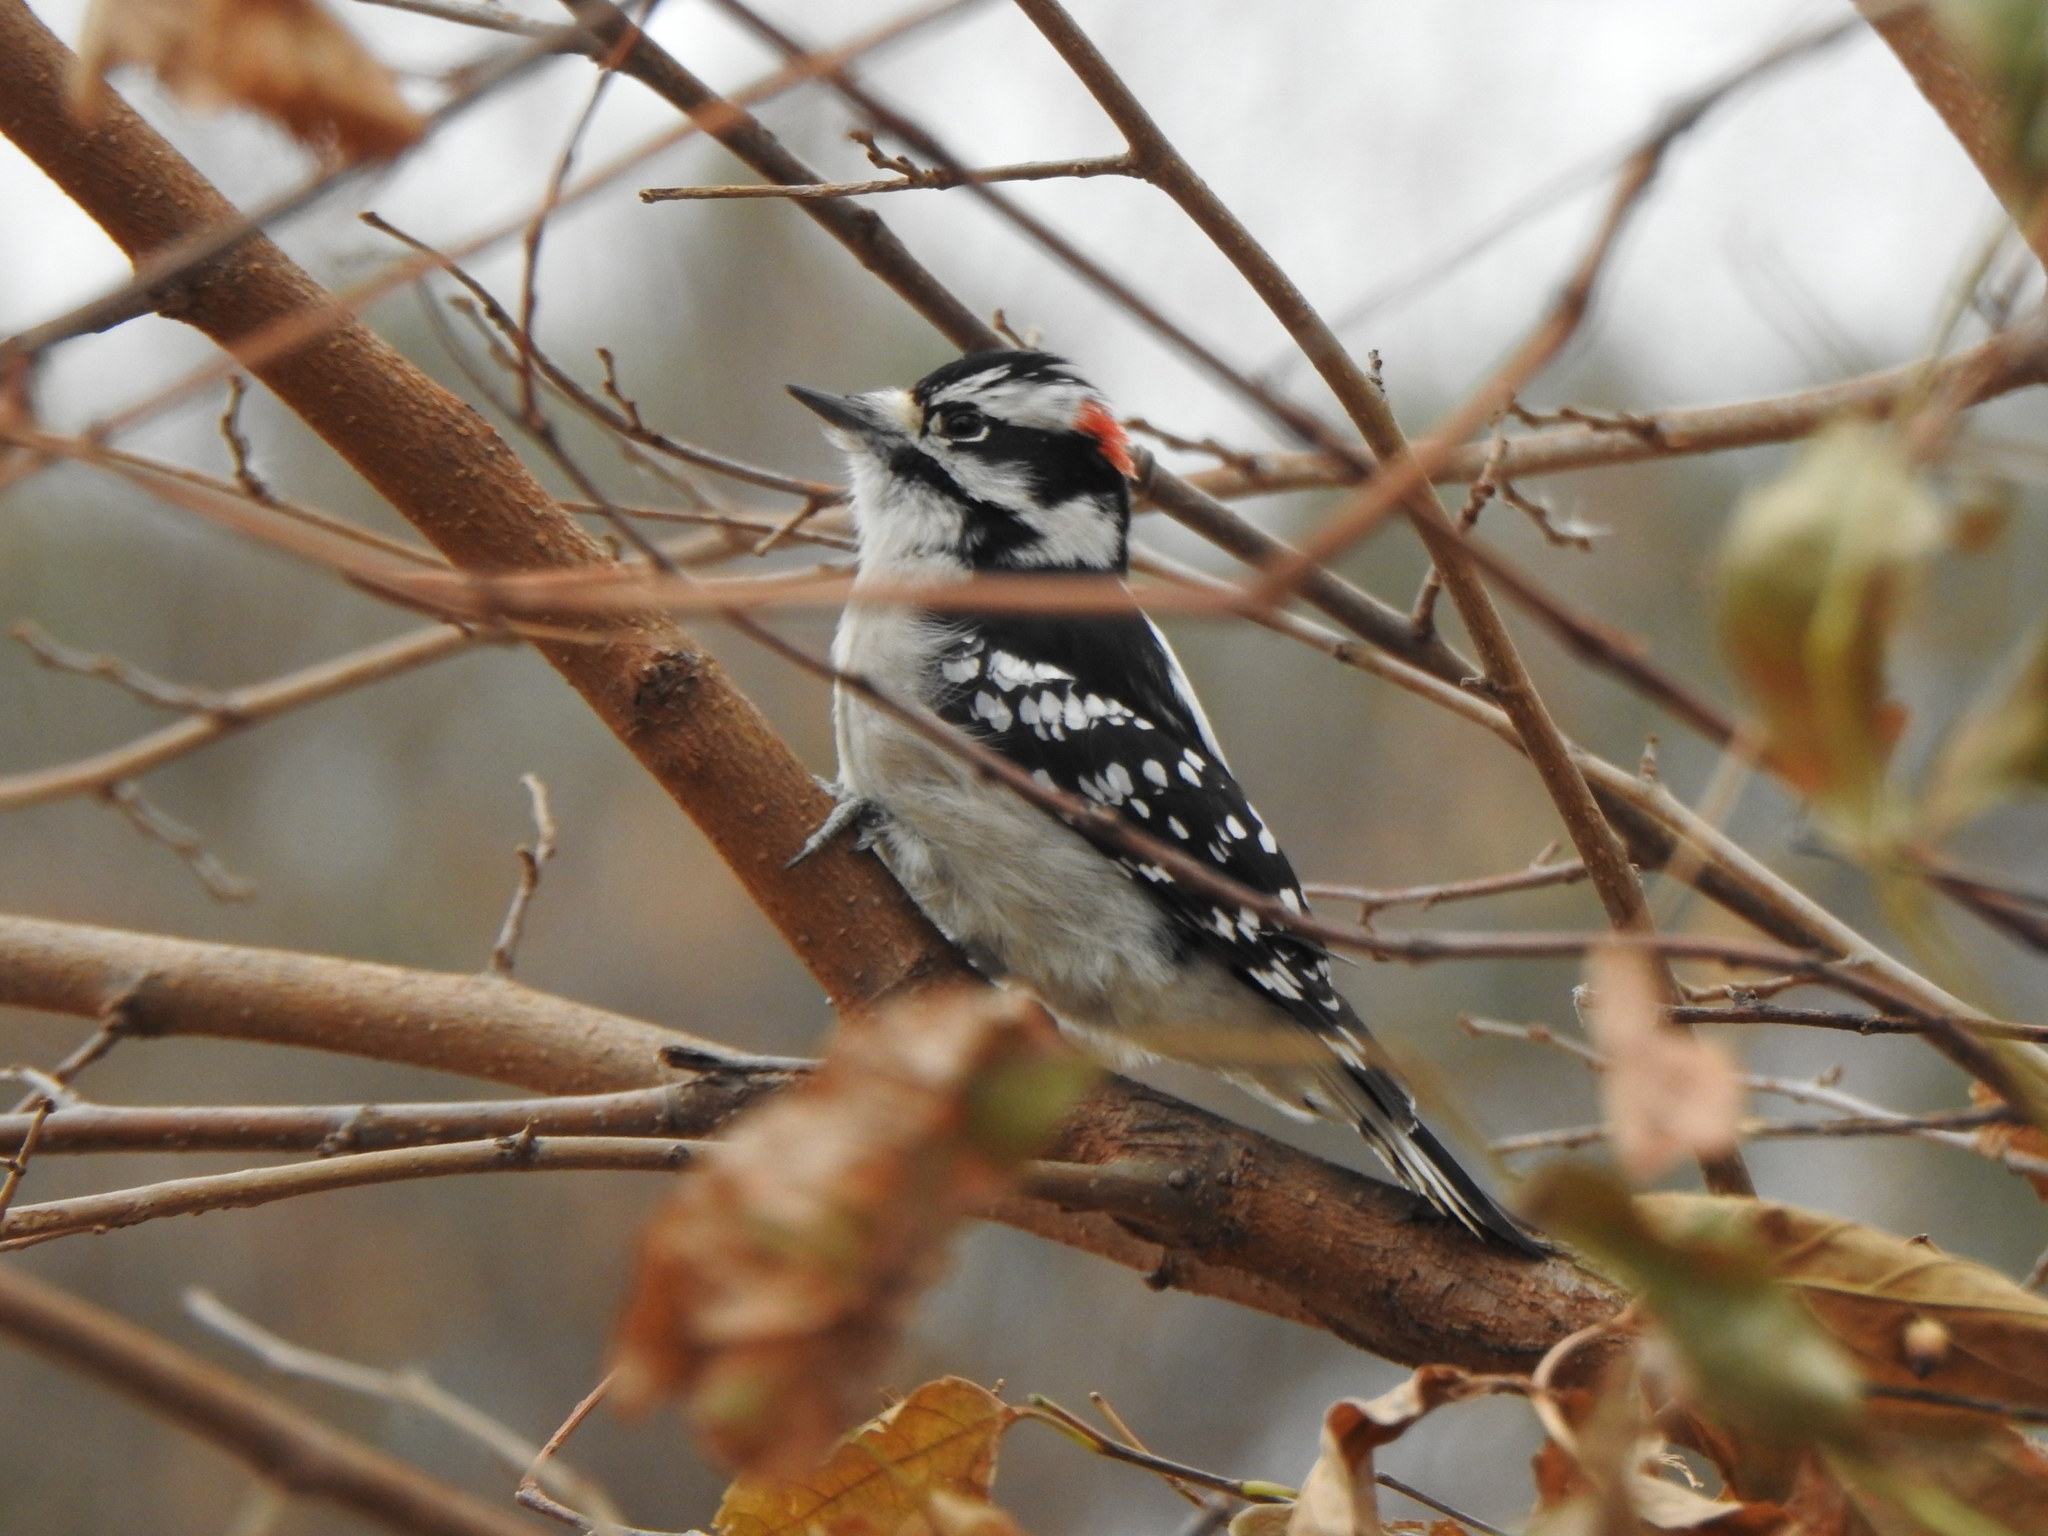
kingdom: Animalia
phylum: Chordata
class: Aves
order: Piciformes
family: Picidae
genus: Dryobates
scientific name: Dryobates pubescens
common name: Downy woodpecker
